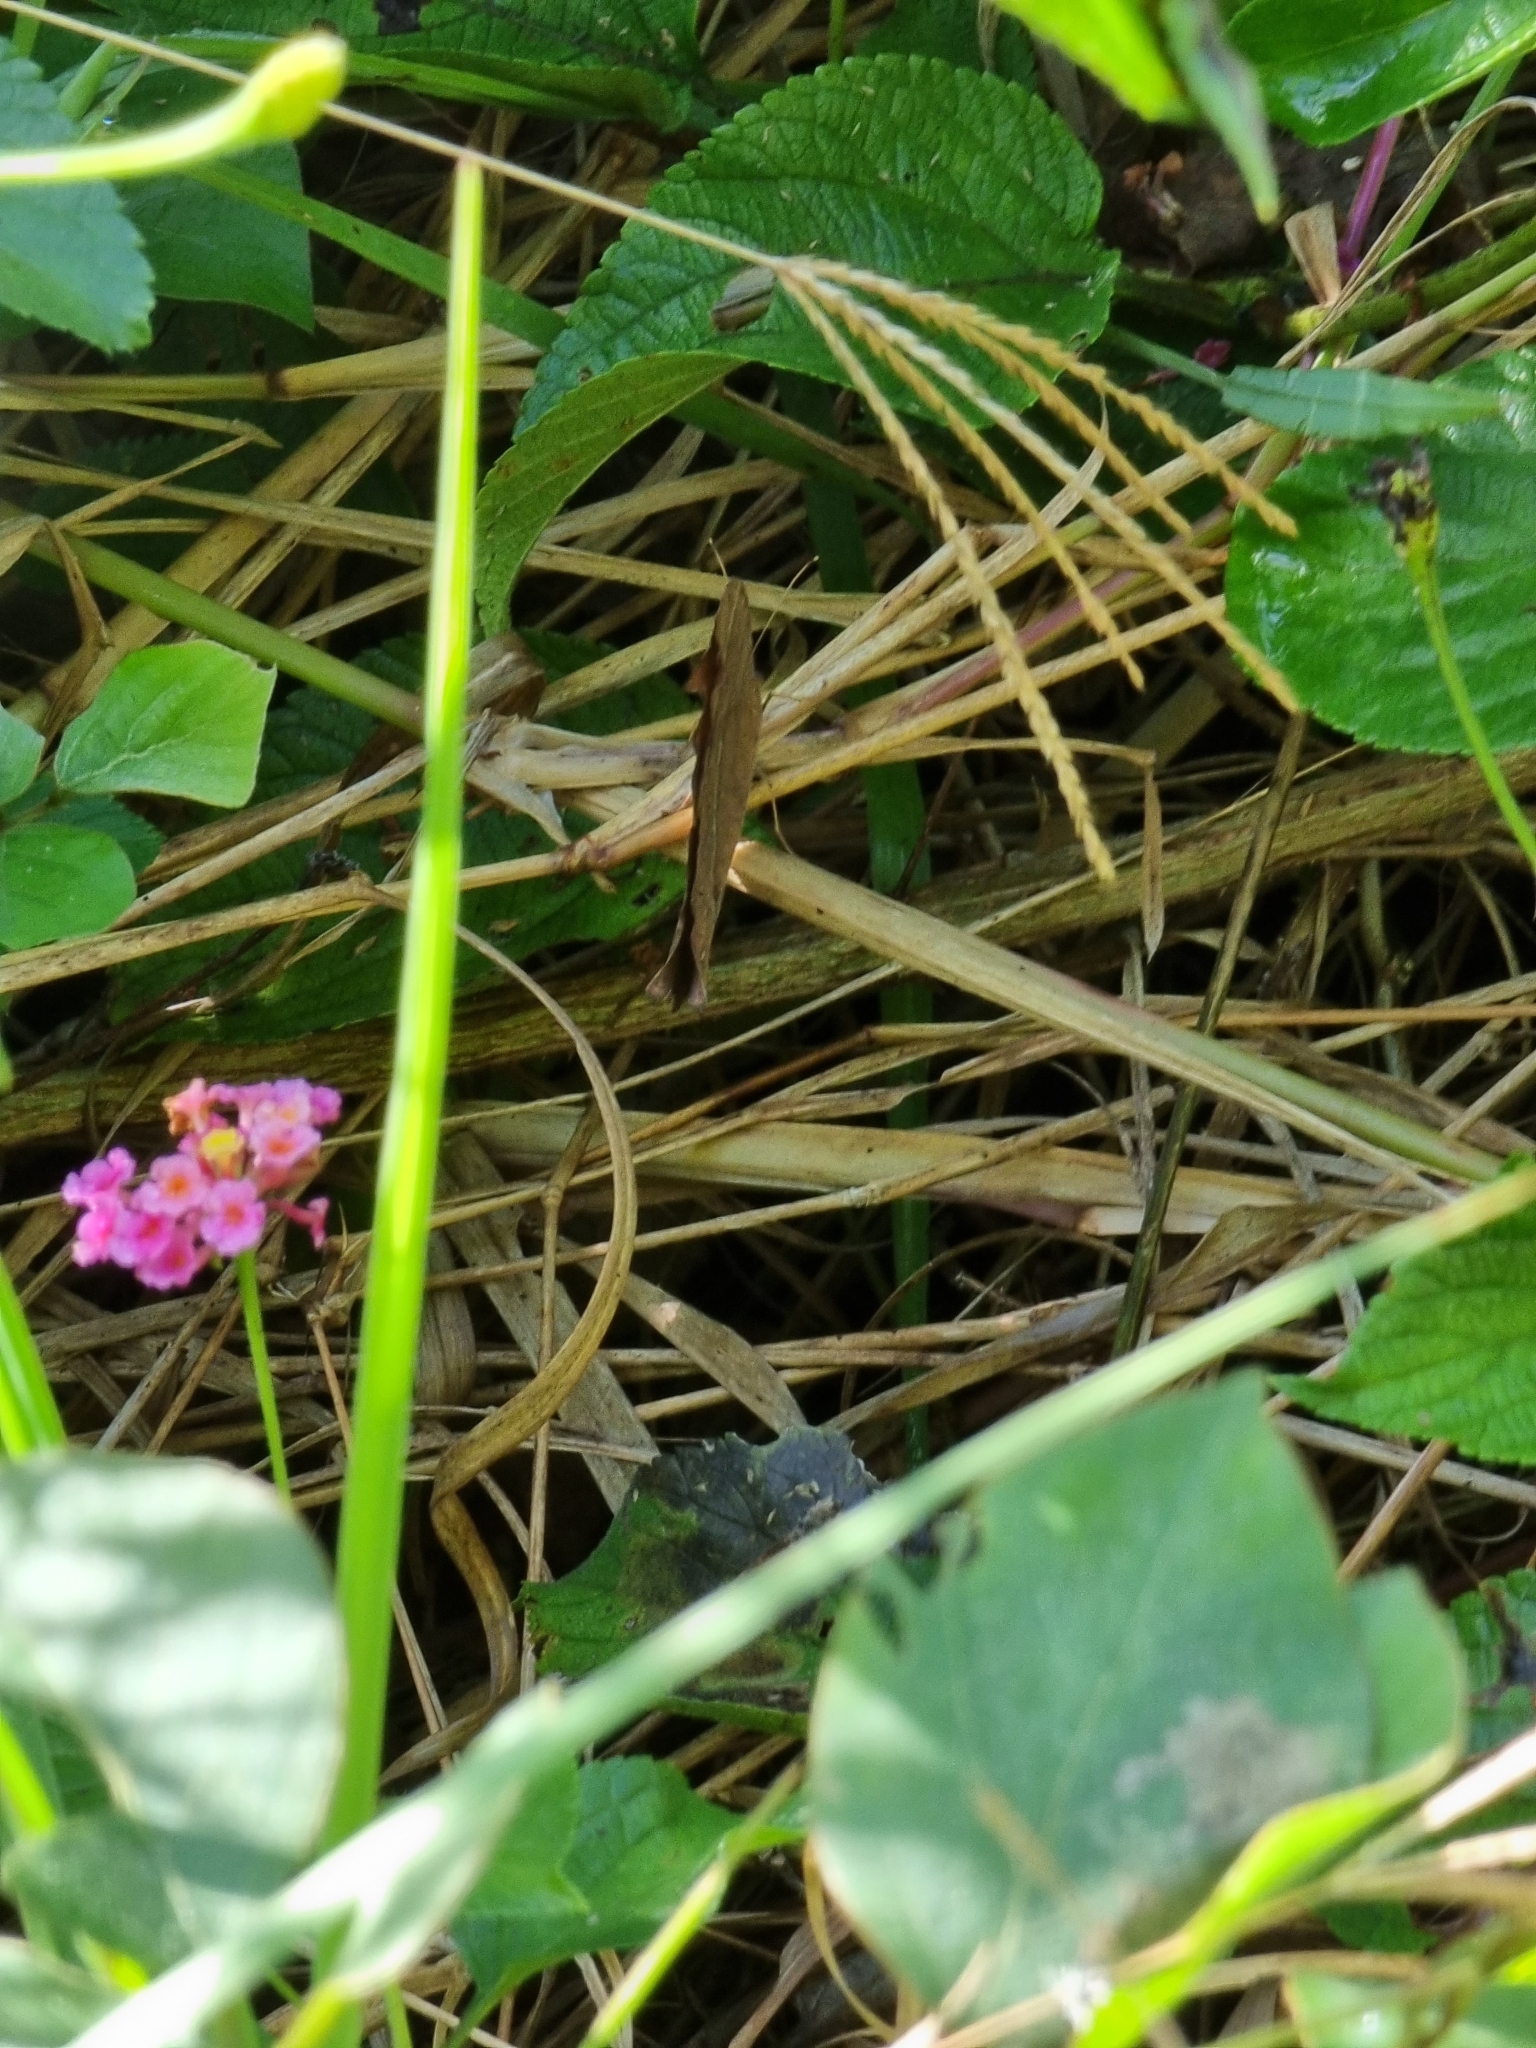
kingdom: Animalia
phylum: Arthropoda
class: Insecta
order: Lepidoptera
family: Nymphalidae
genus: Melanitis
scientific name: Melanitis leda
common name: Twilight brown
